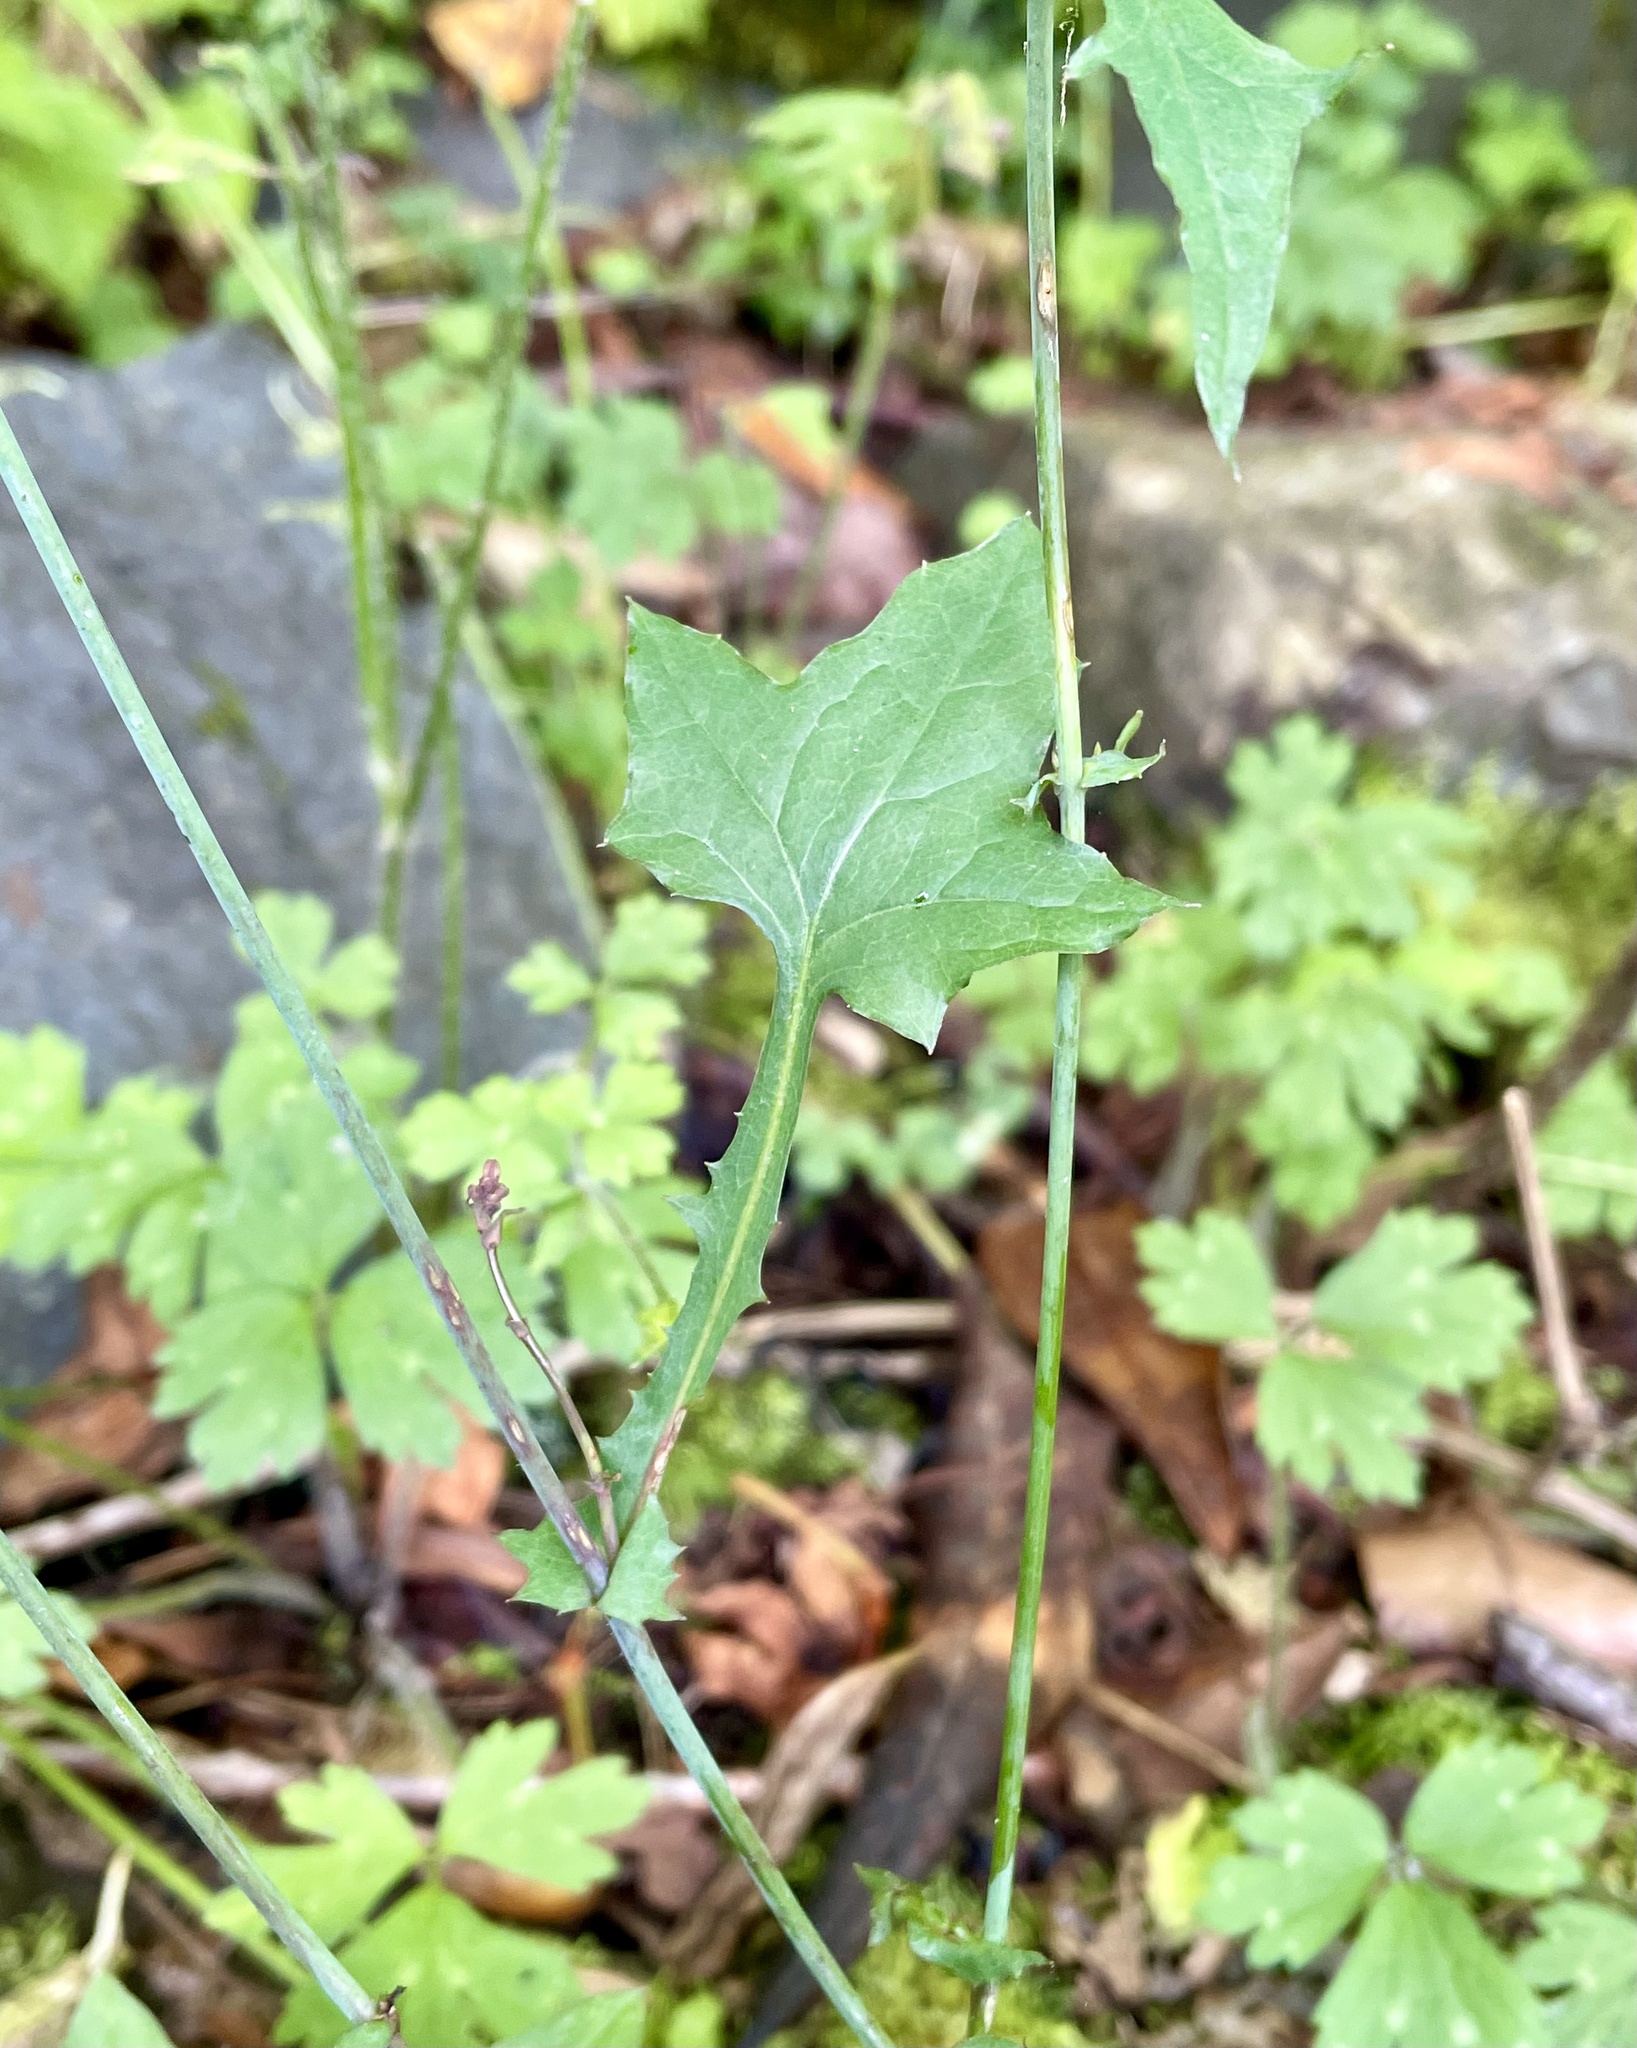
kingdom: Plantae
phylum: Tracheophyta
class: Magnoliopsida
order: Asterales
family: Asteraceae
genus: Mycelis
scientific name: Mycelis muralis
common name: Wall lettuce
